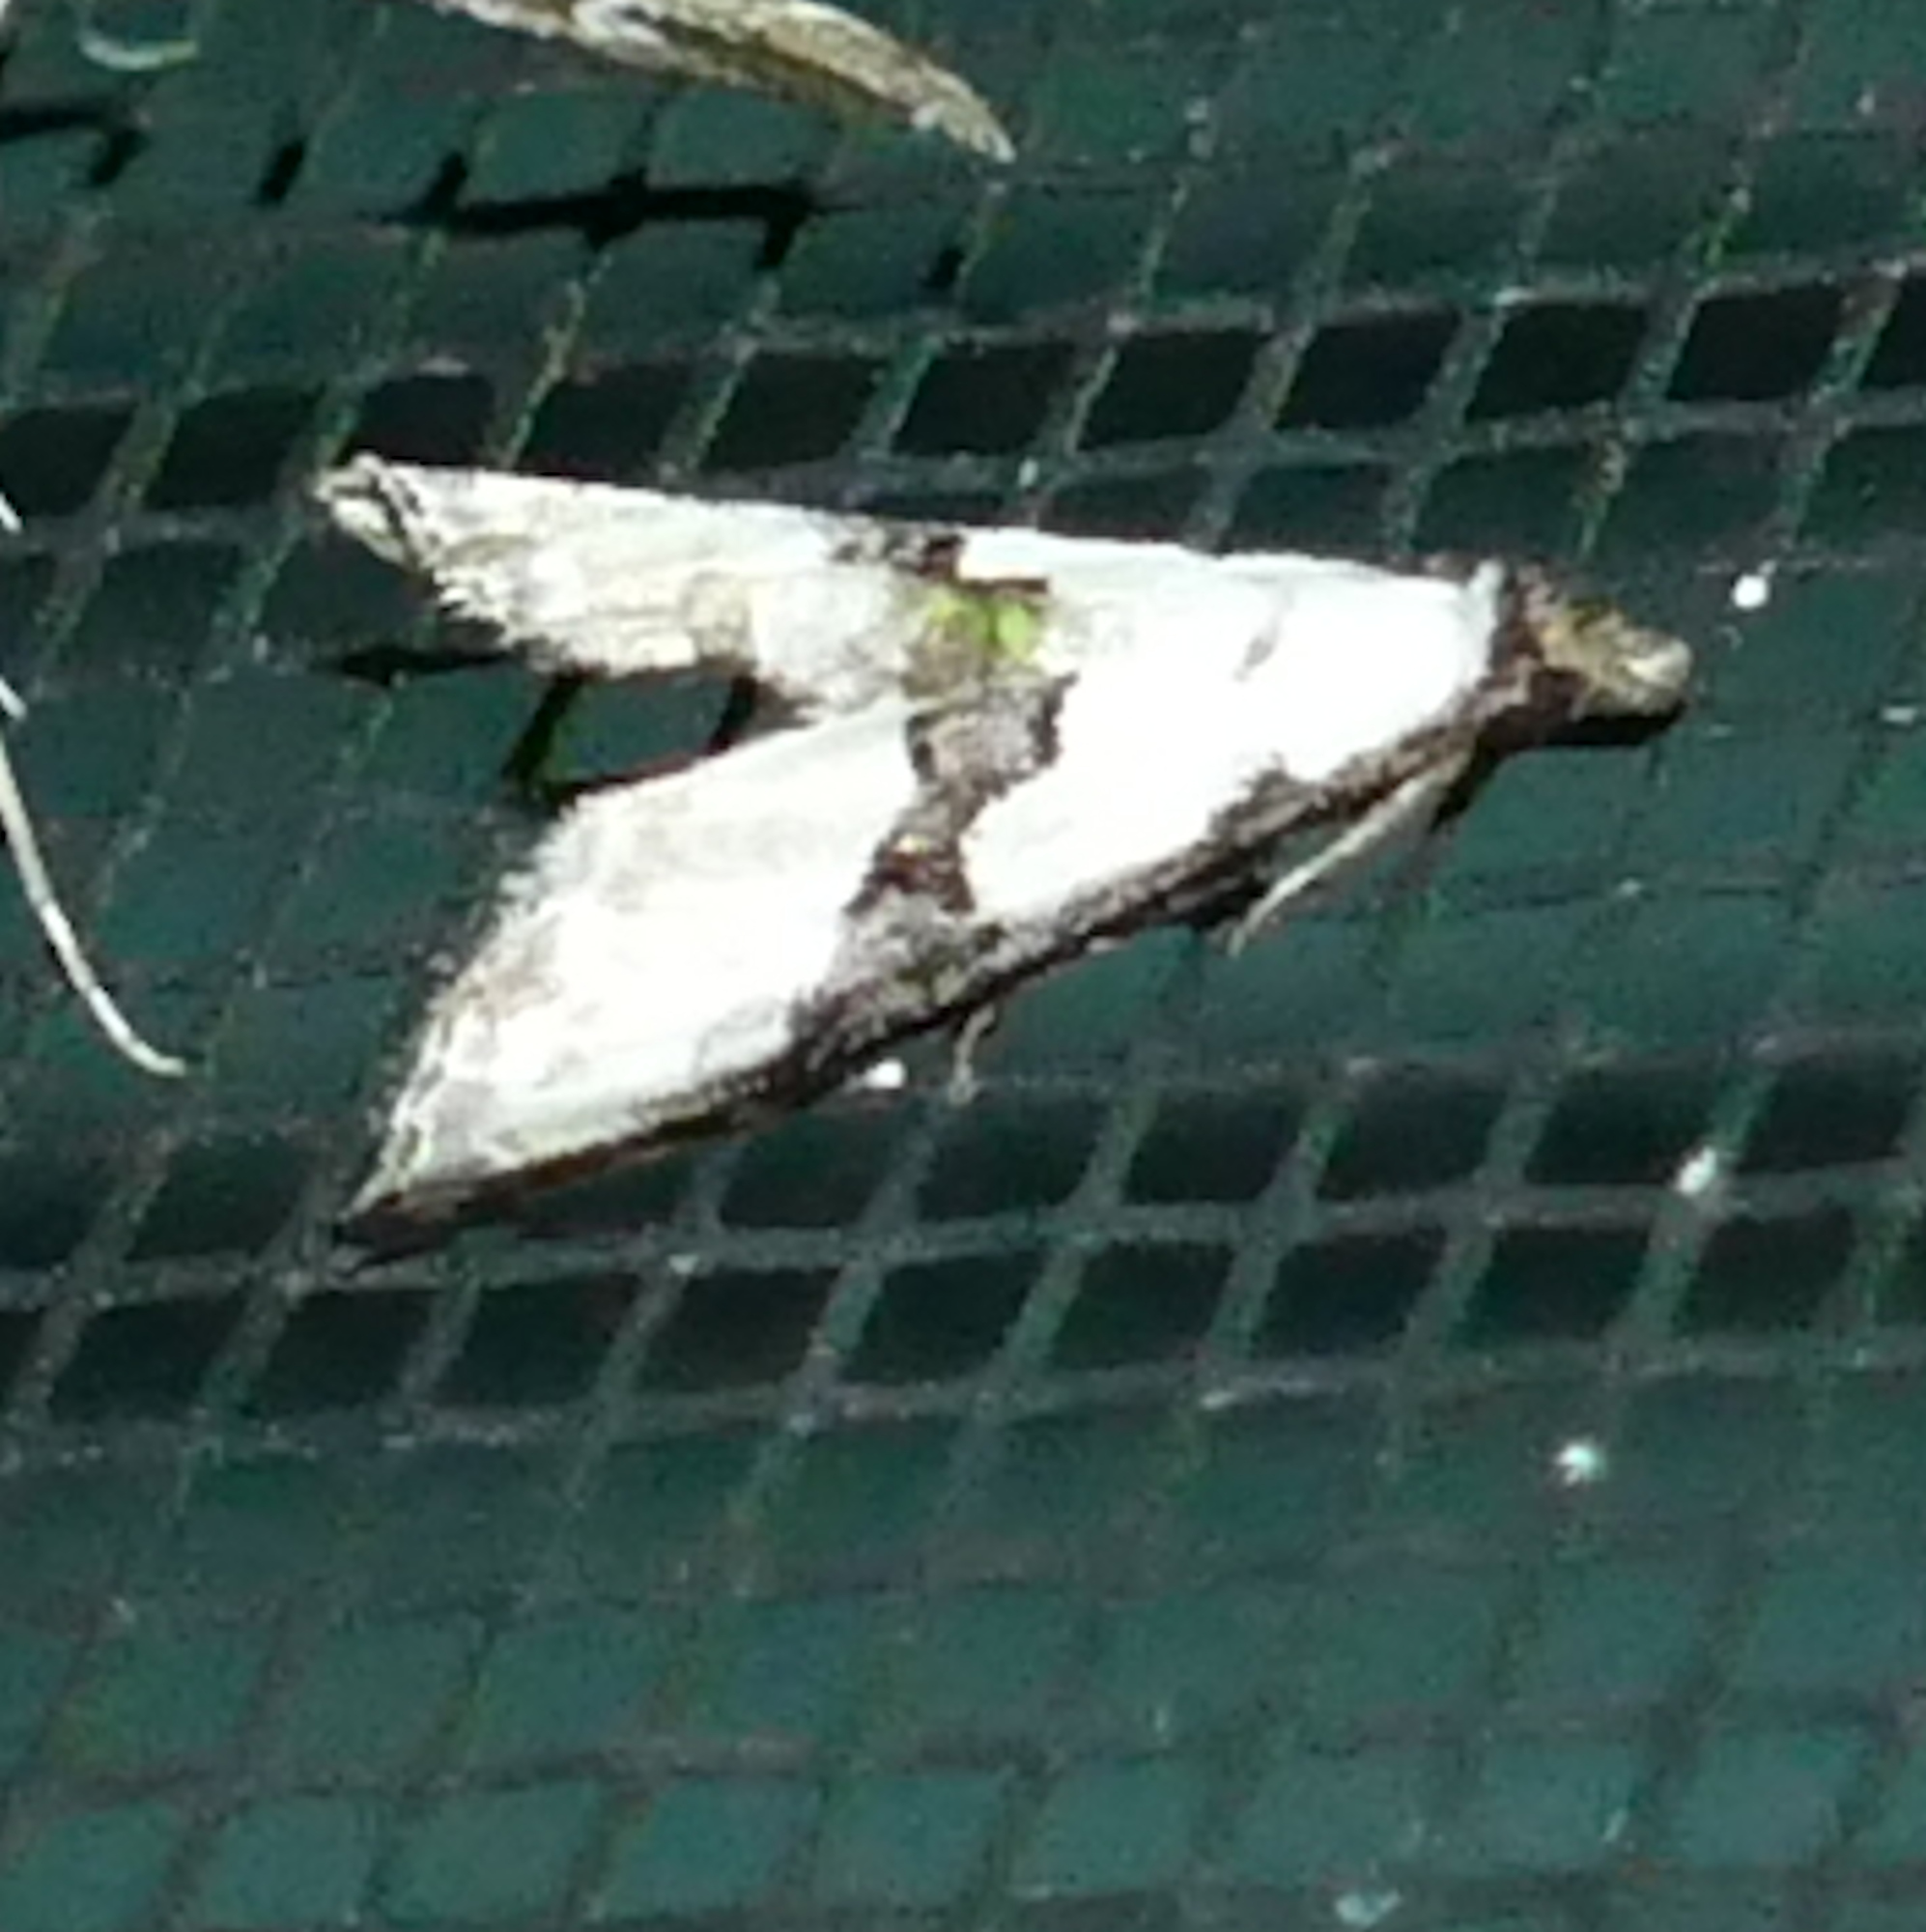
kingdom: Animalia
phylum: Arthropoda
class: Insecta
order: Lepidoptera
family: Noctuidae
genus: Nigetia
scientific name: Nigetia formosalis
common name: Thin-winged owlet
